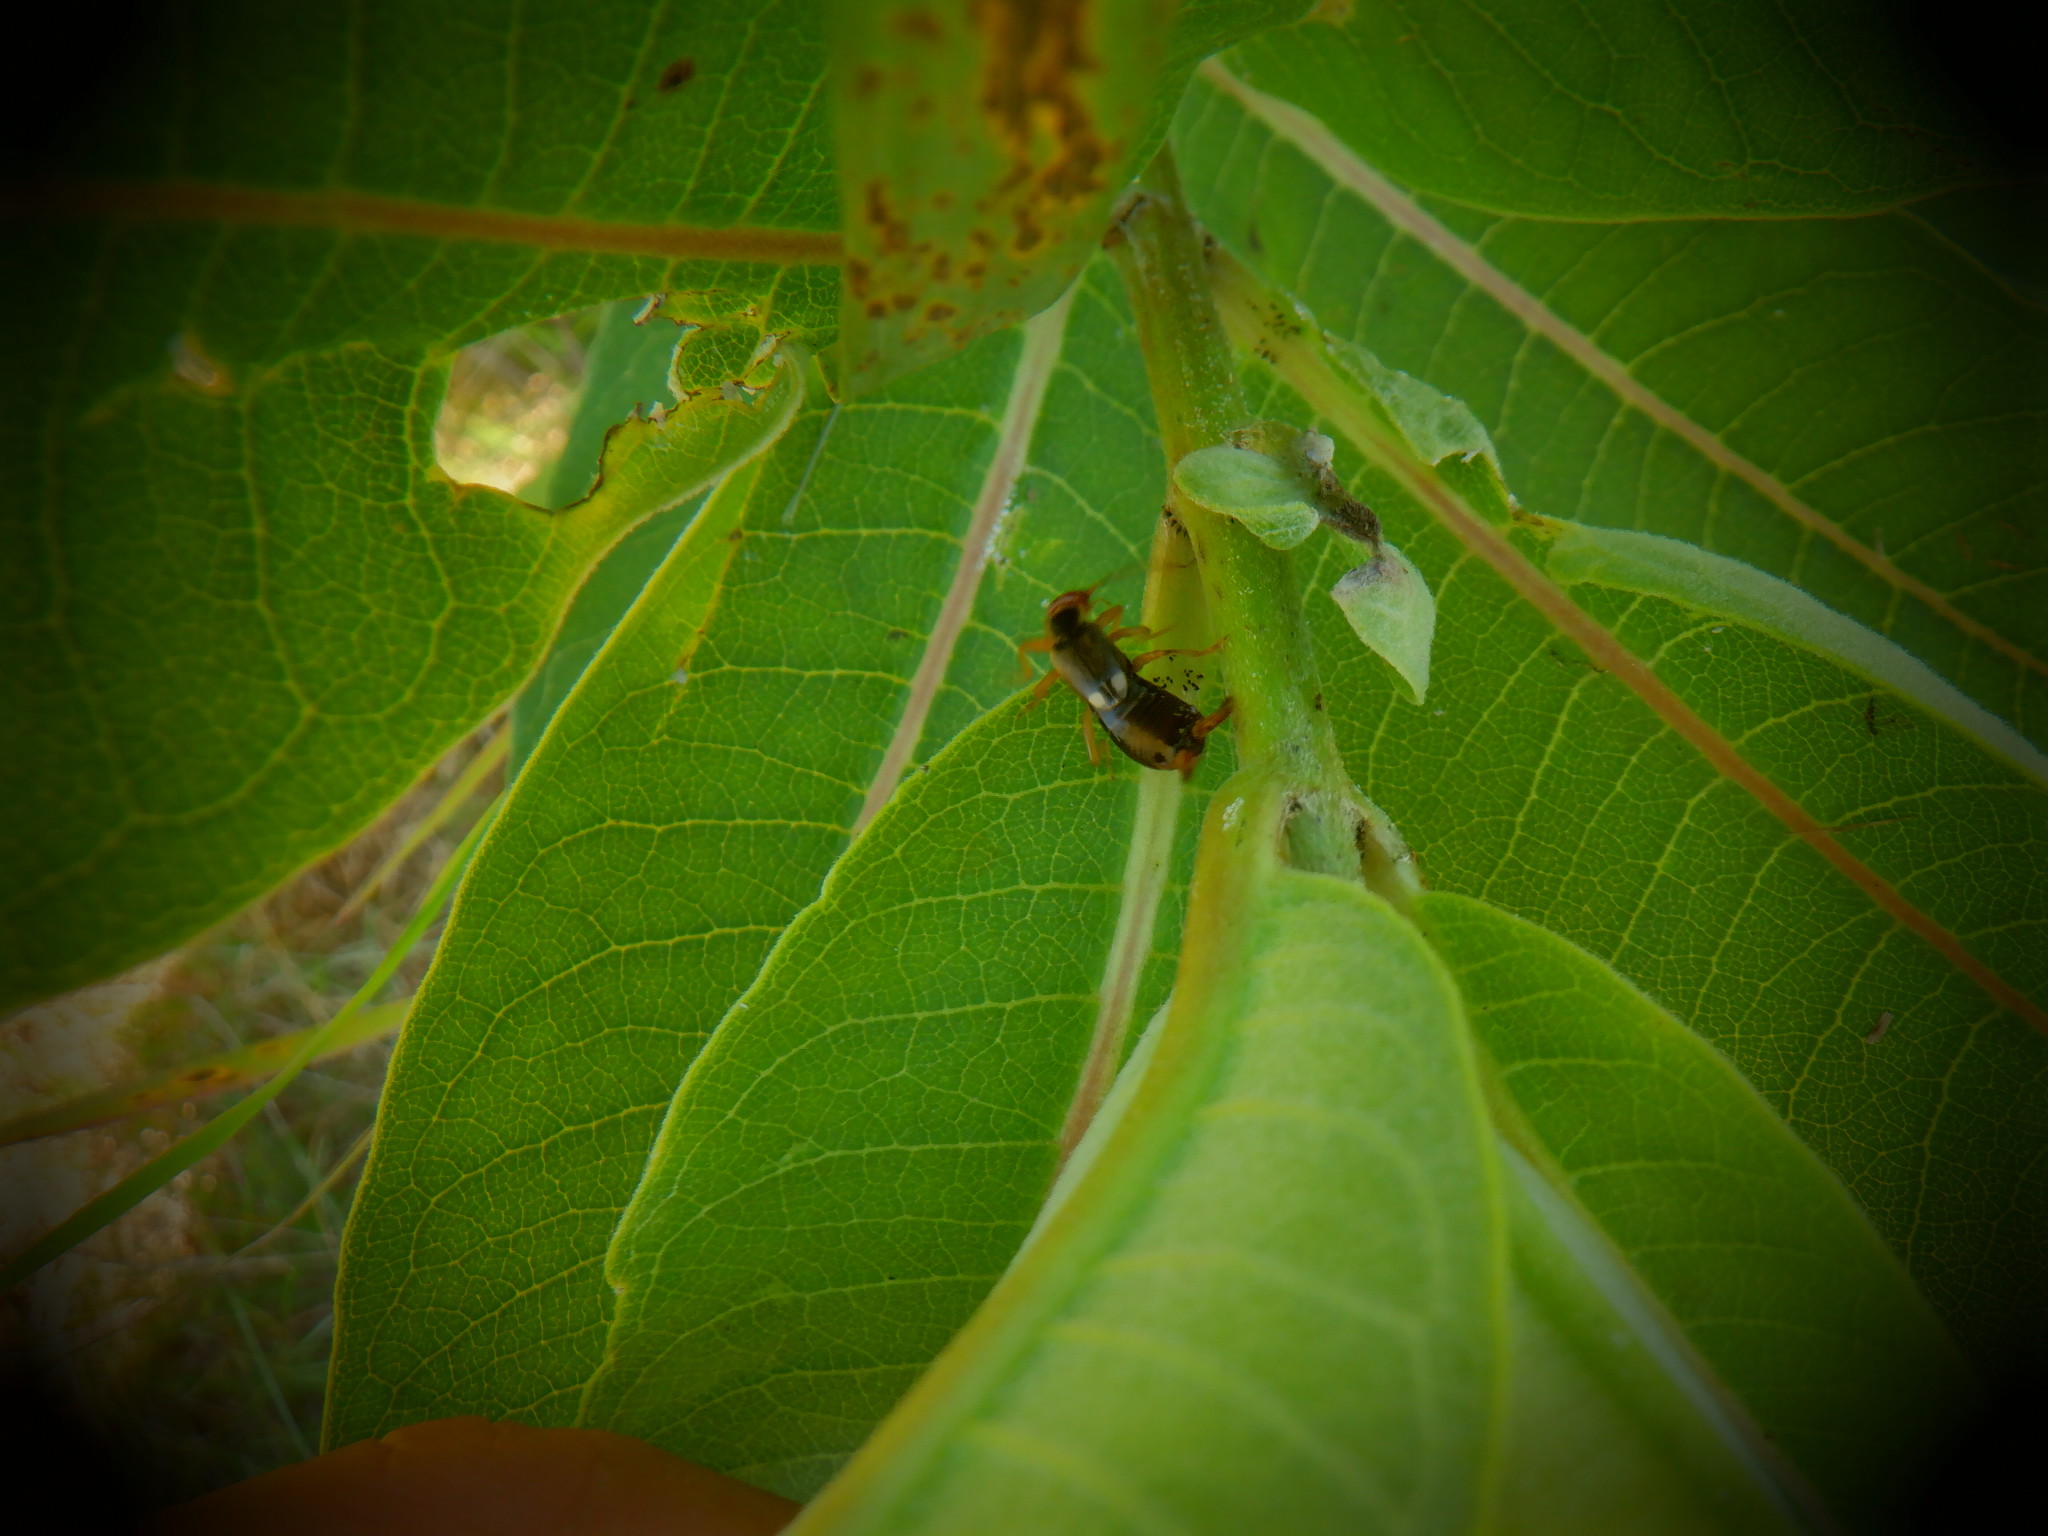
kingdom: Animalia
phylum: Arthropoda
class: Insecta
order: Dermaptera
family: Forficulidae
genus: Forficula
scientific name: Forficula
